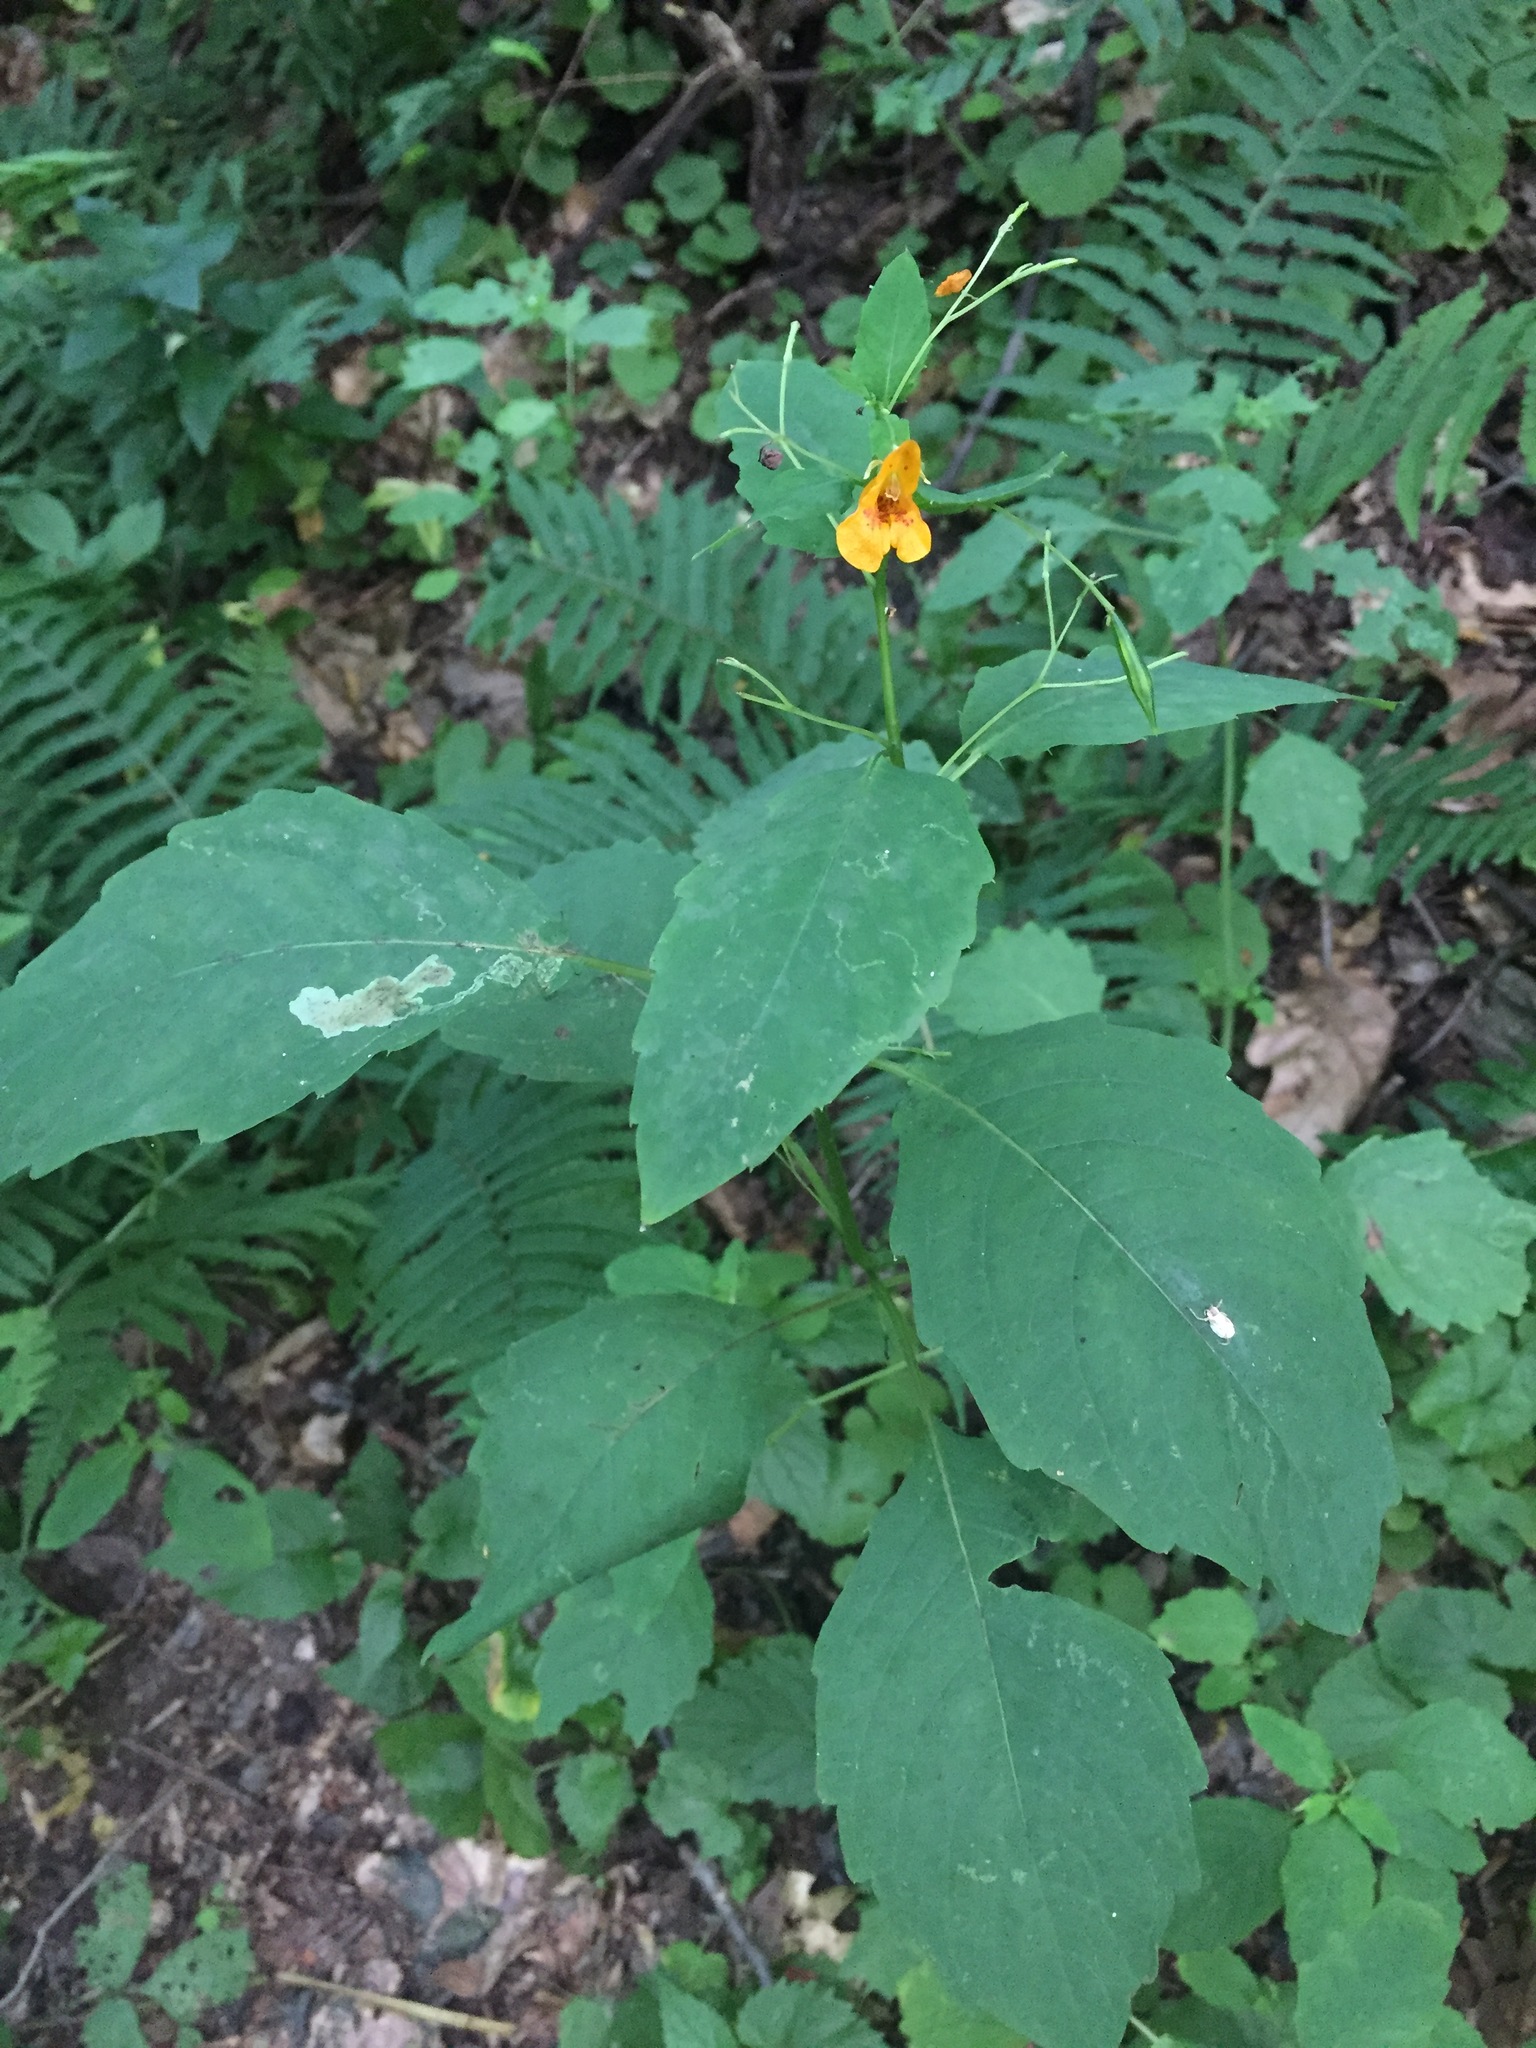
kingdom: Plantae
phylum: Tracheophyta
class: Magnoliopsida
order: Ericales
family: Balsaminaceae
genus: Impatiens
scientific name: Impatiens capensis
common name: Orange balsam
